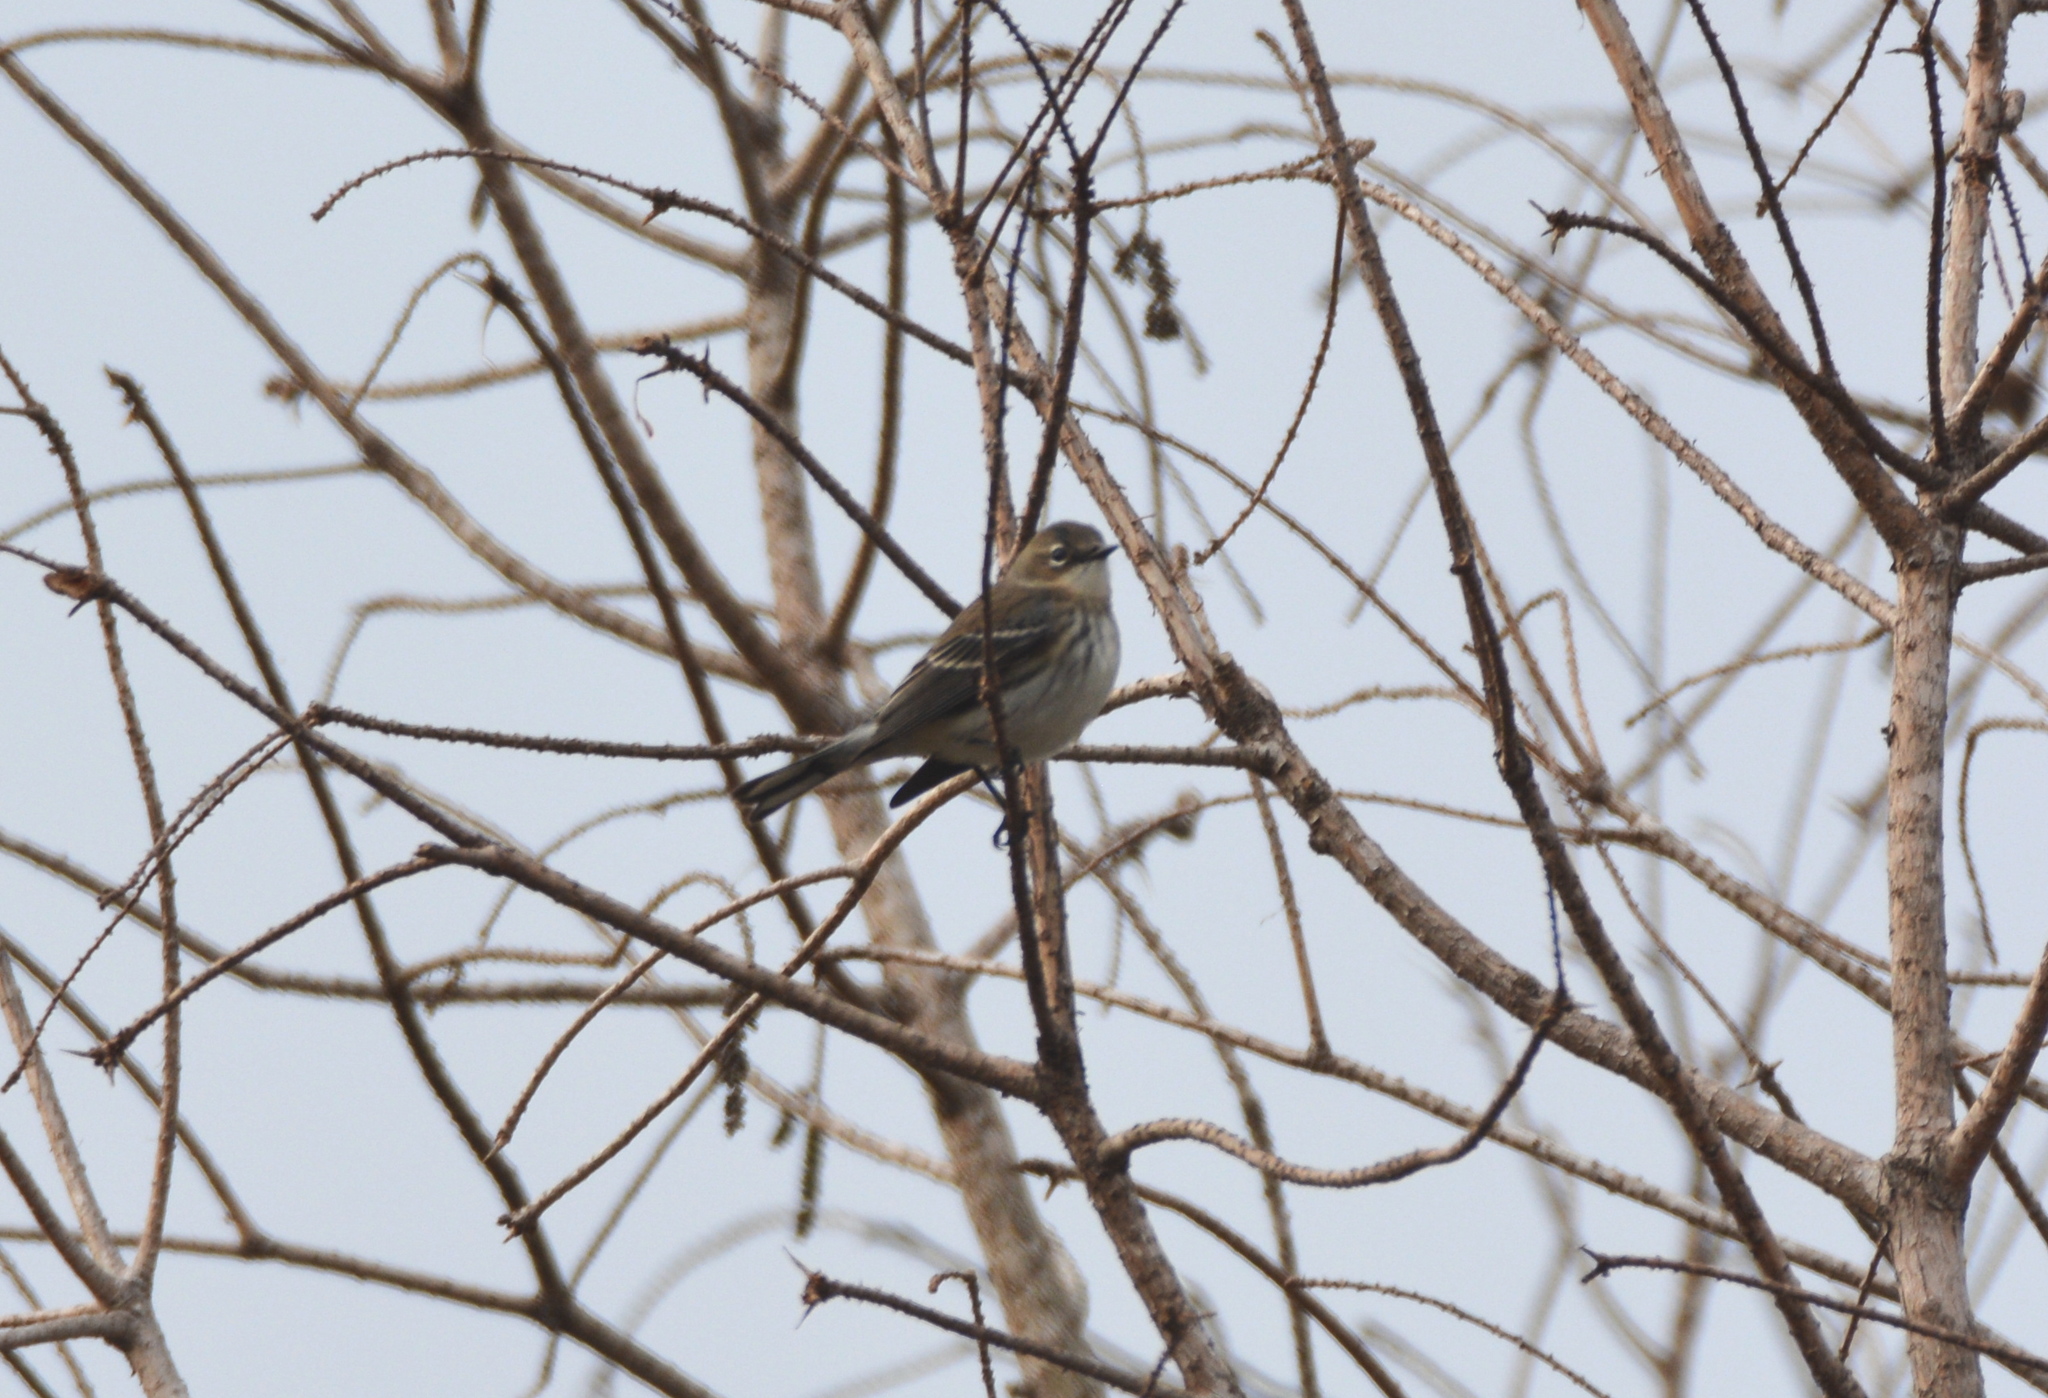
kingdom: Animalia
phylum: Chordata
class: Aves
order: Passeriformes
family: Parulidae
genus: Setophaga
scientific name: Setophaga coronata
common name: Myrtle warbler
